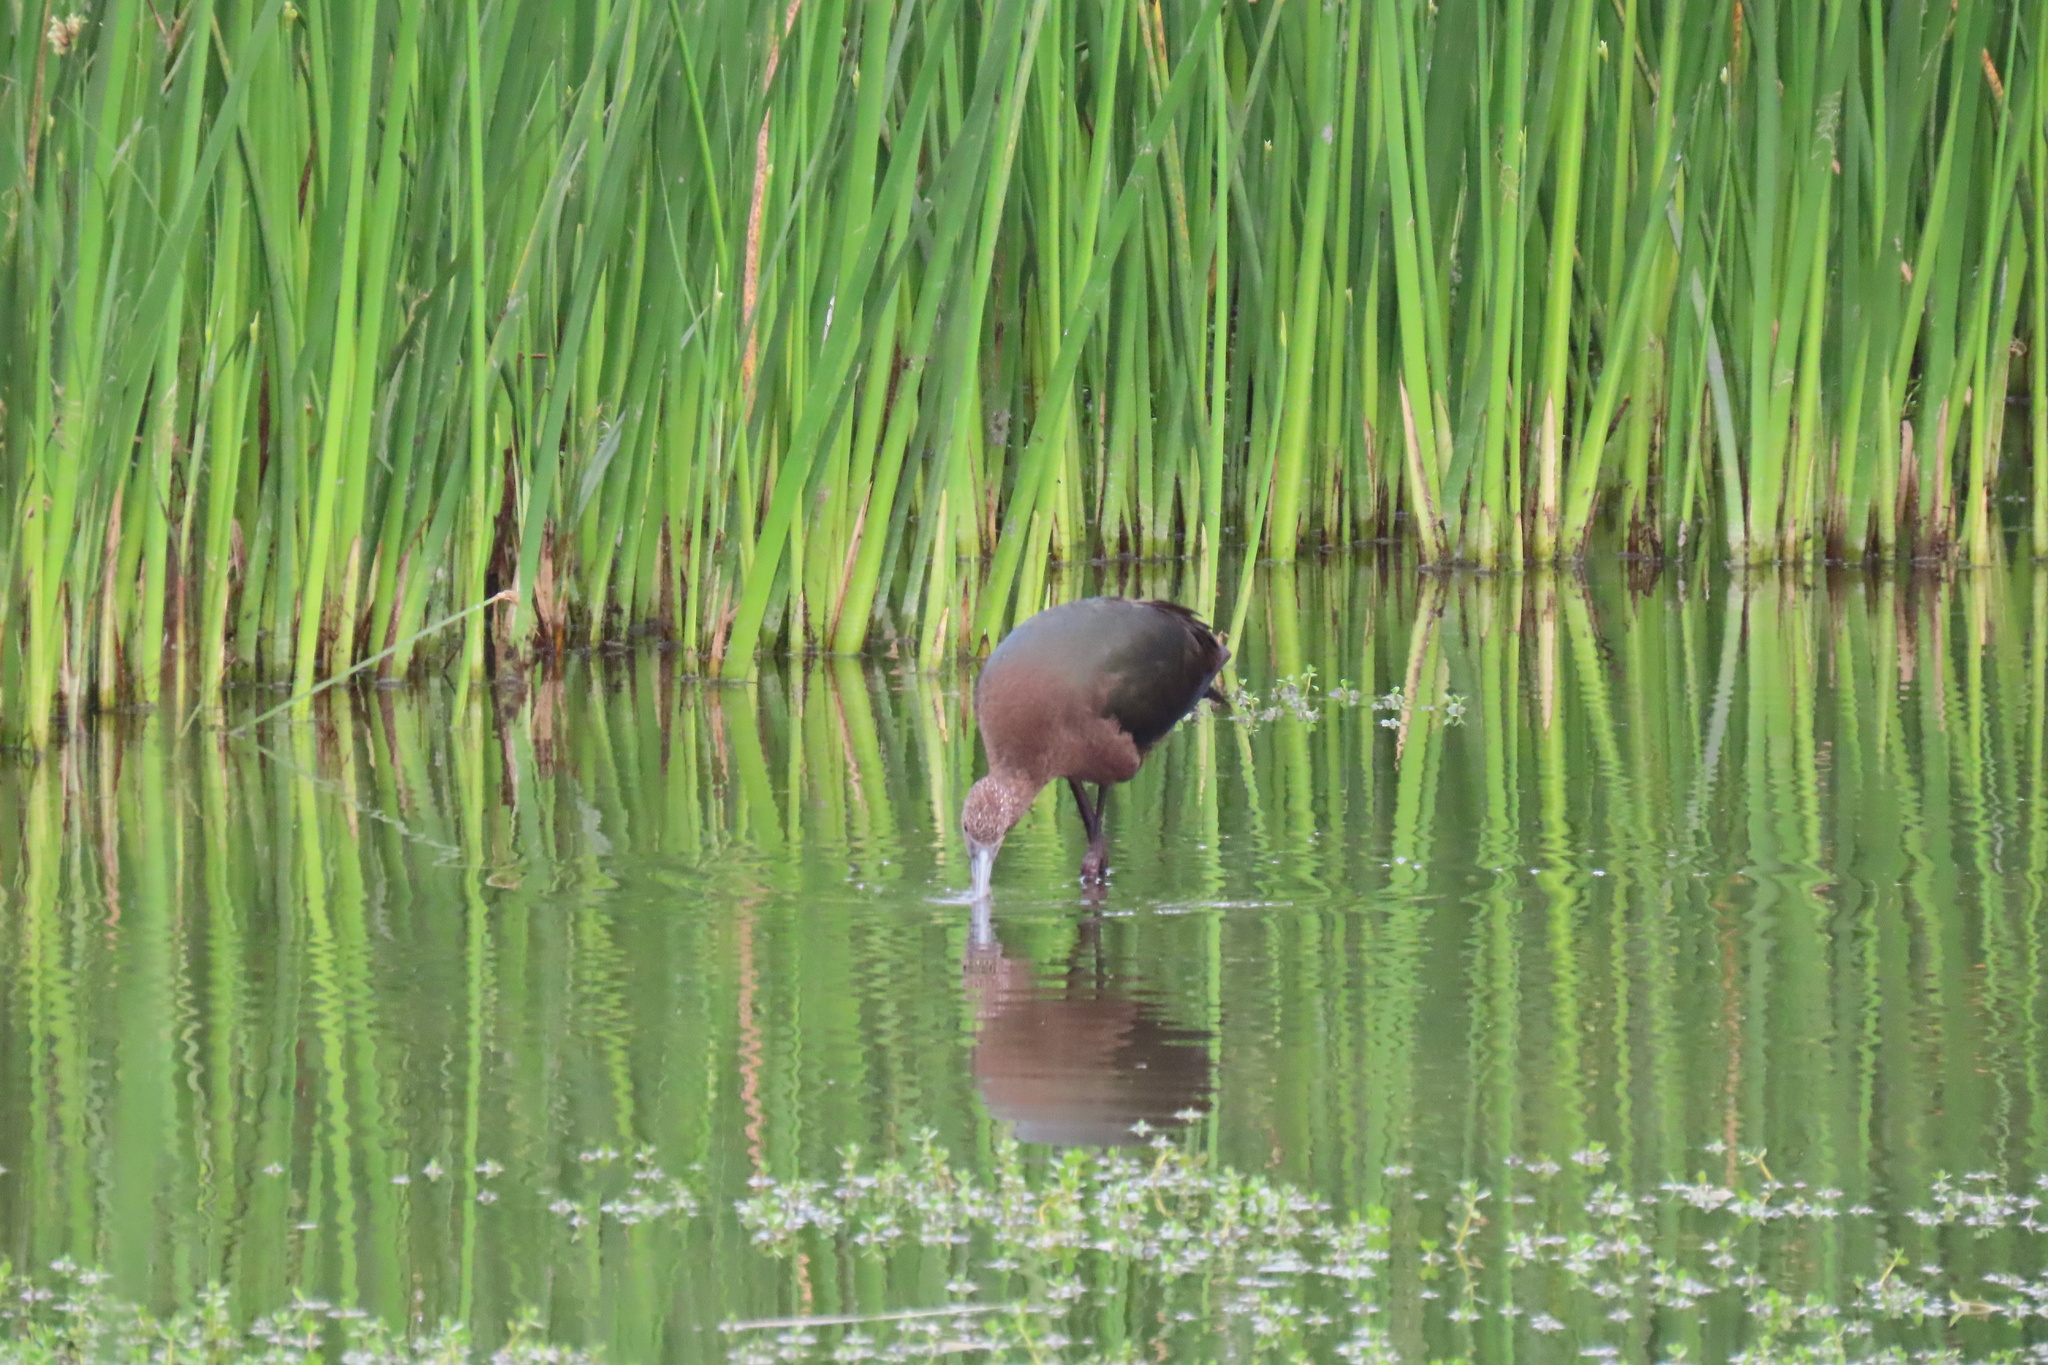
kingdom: Animalia
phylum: Chordata
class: Aves
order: Pelecaniformes
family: Threskiornithidae
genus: Plegadis
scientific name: Plegadis chihi
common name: White-faced ibis
